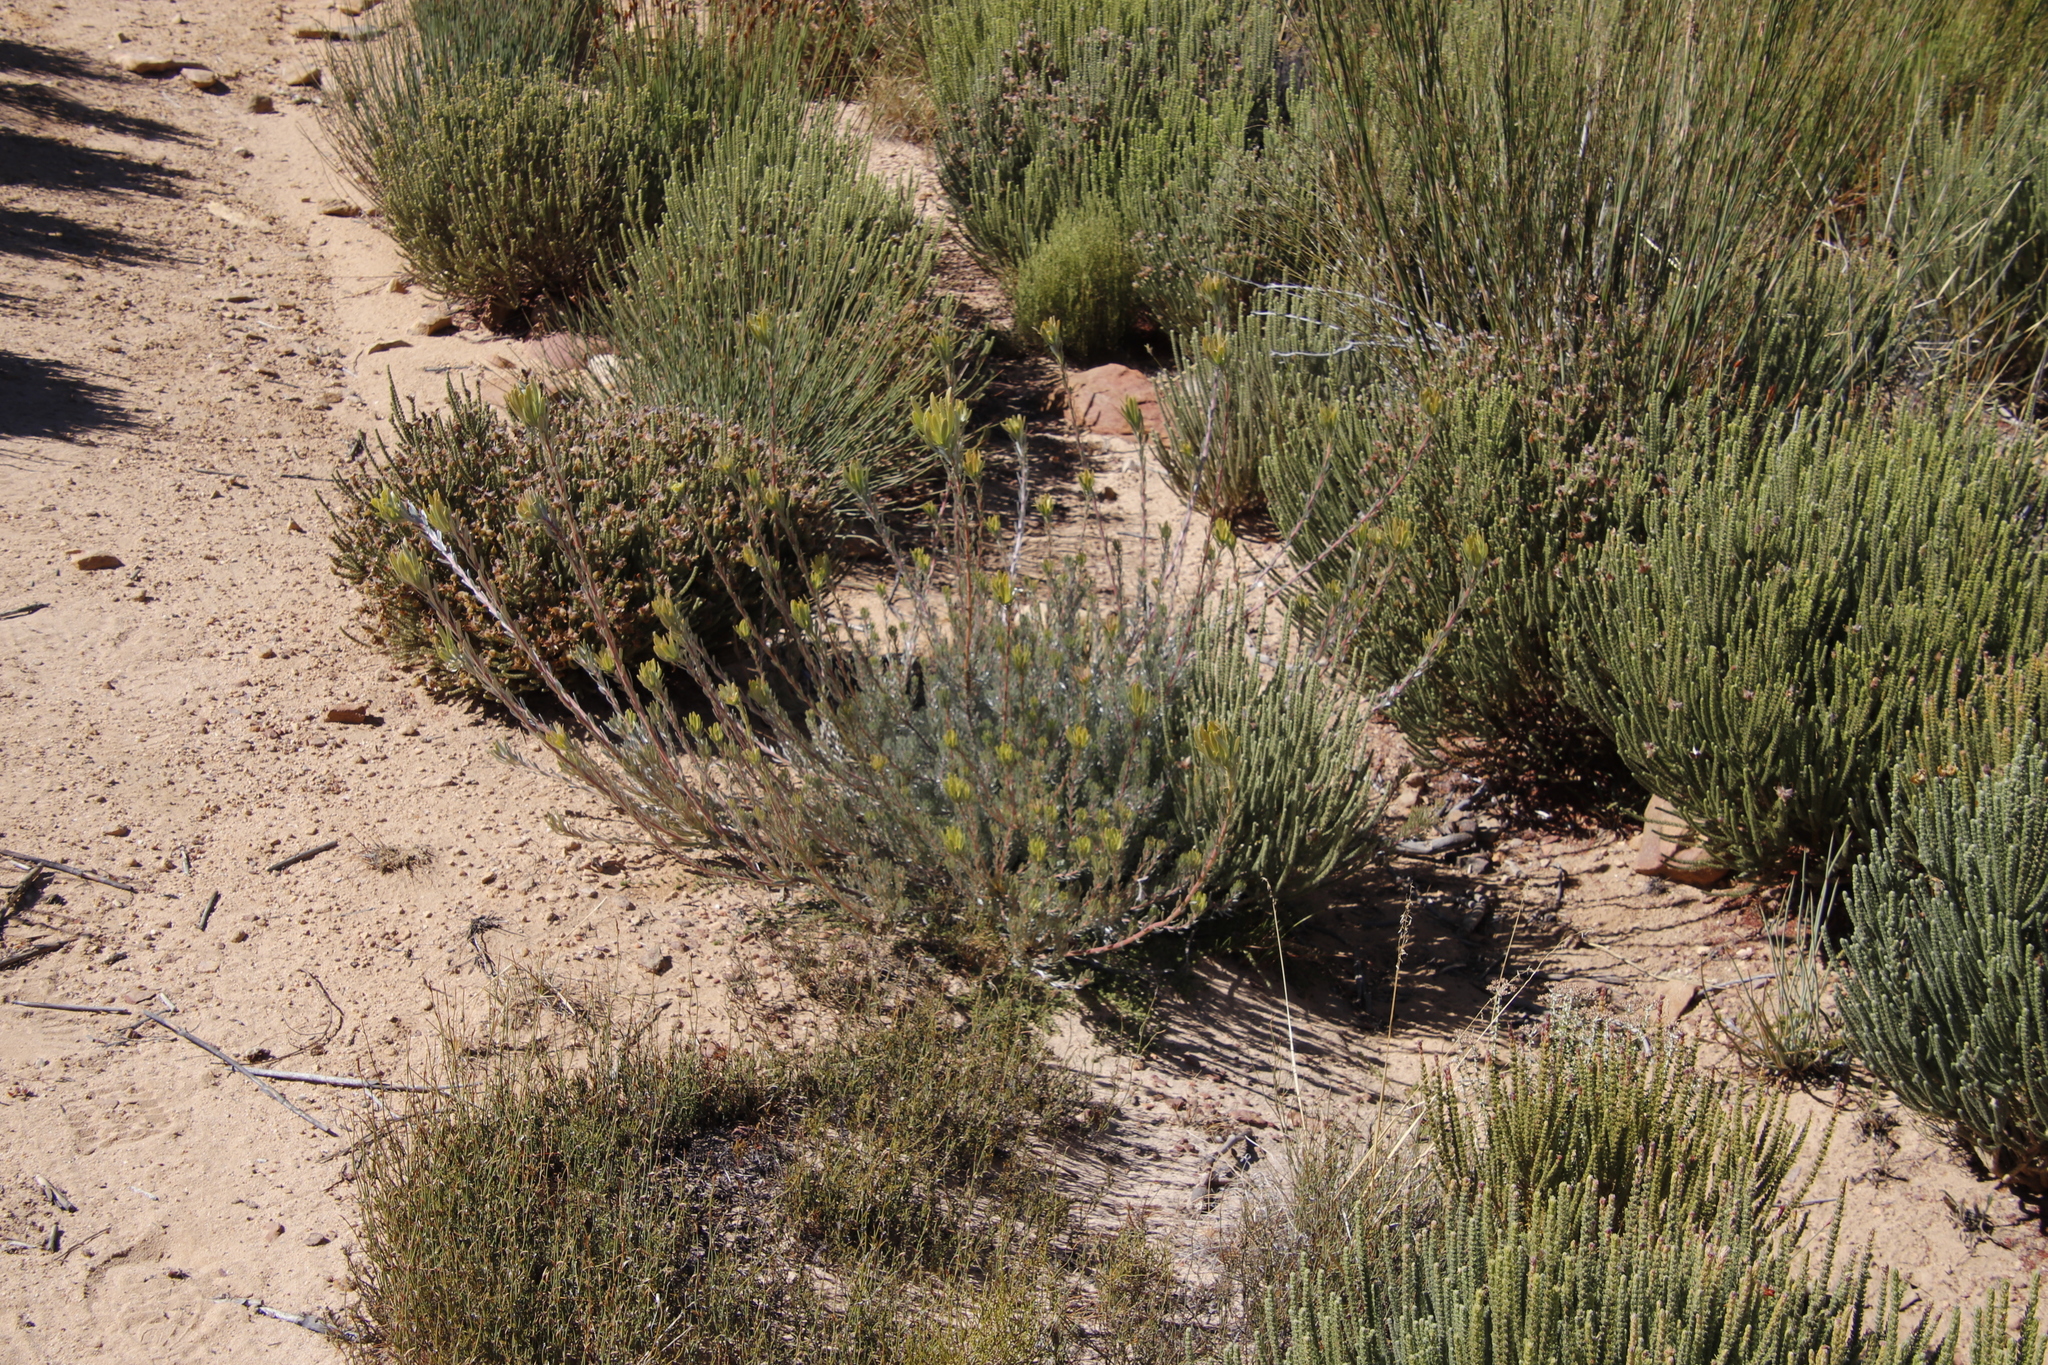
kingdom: Plantae
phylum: Tracheophyta
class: Magnoliopsida
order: Proteales
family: Proteaceae
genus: Leucadendron
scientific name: Leucadendron nitidum
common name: Bokkeveld conebush
